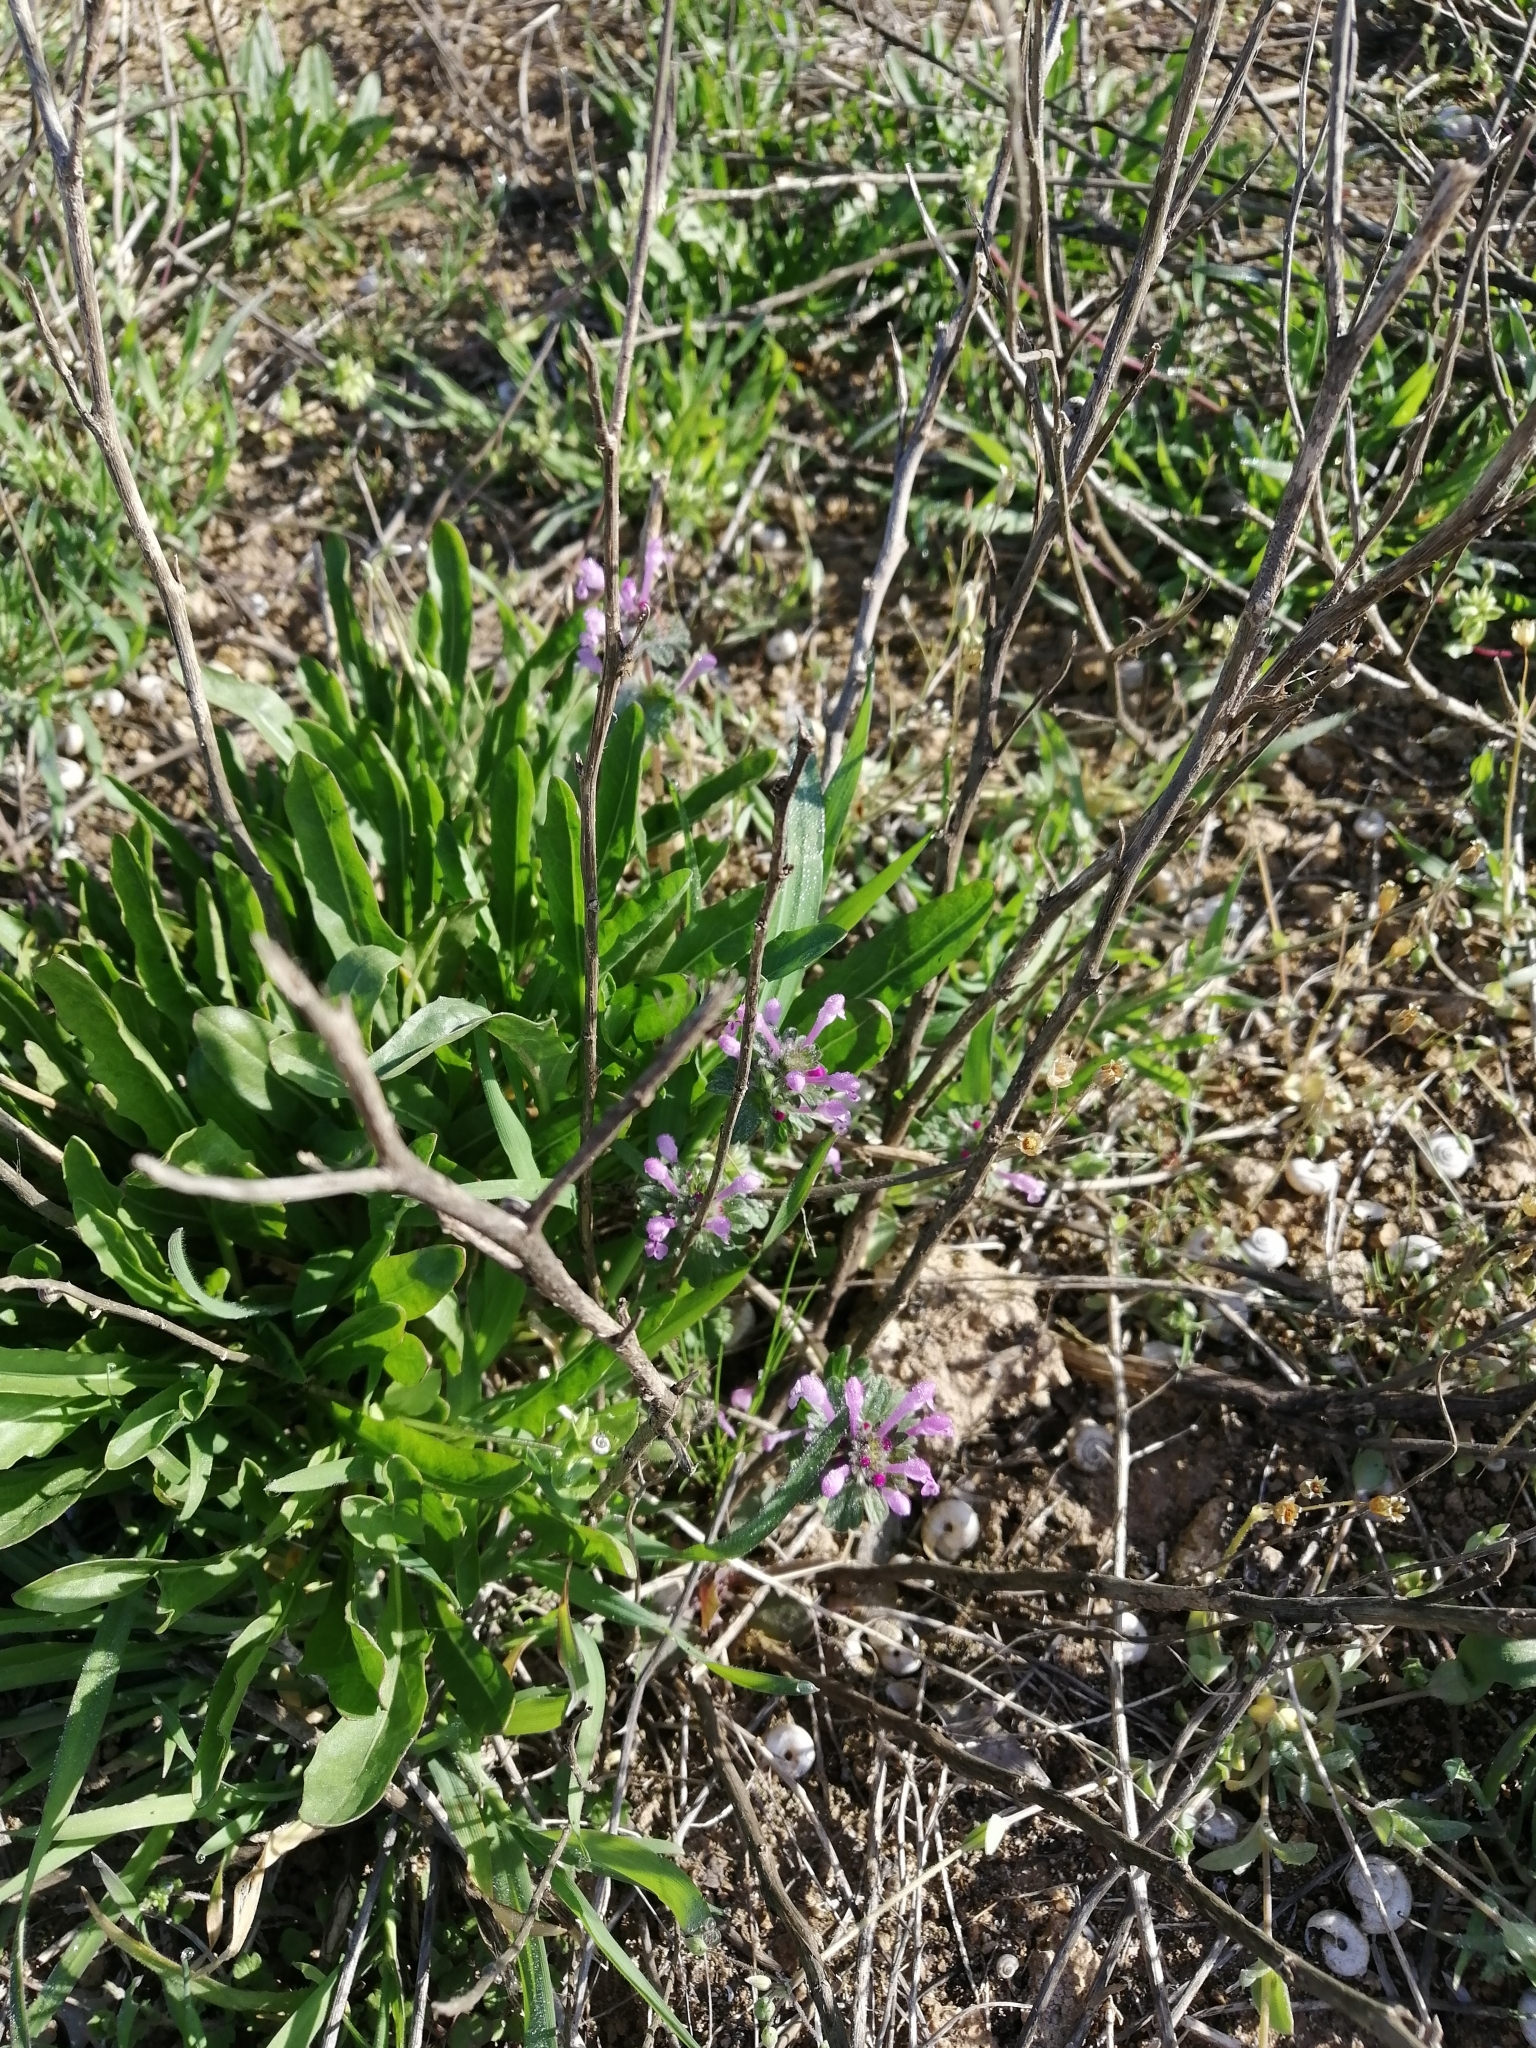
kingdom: Plantae
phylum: Tracheophyta
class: Magnoliopsida
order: Lamiales
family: Lamiaceae
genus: Lamium
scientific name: Lamium amplexicaule
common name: Henbit dead-nettle
